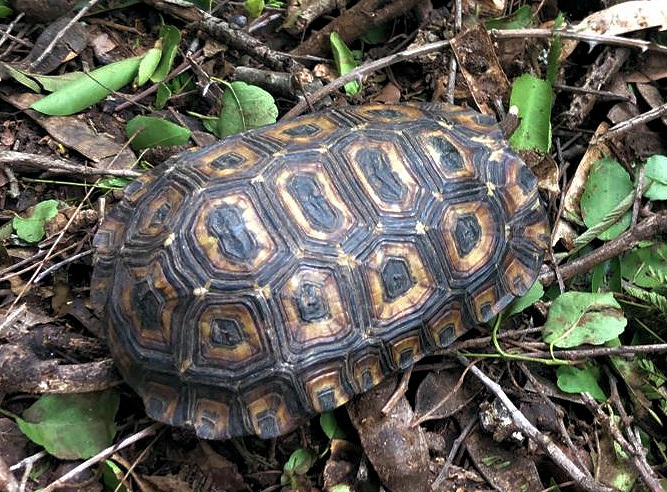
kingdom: Animalia
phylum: Chordata
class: Testudines
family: Testudinidae
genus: Kinixys
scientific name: Kinixys spekii
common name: Speke's hingeback tortoise
